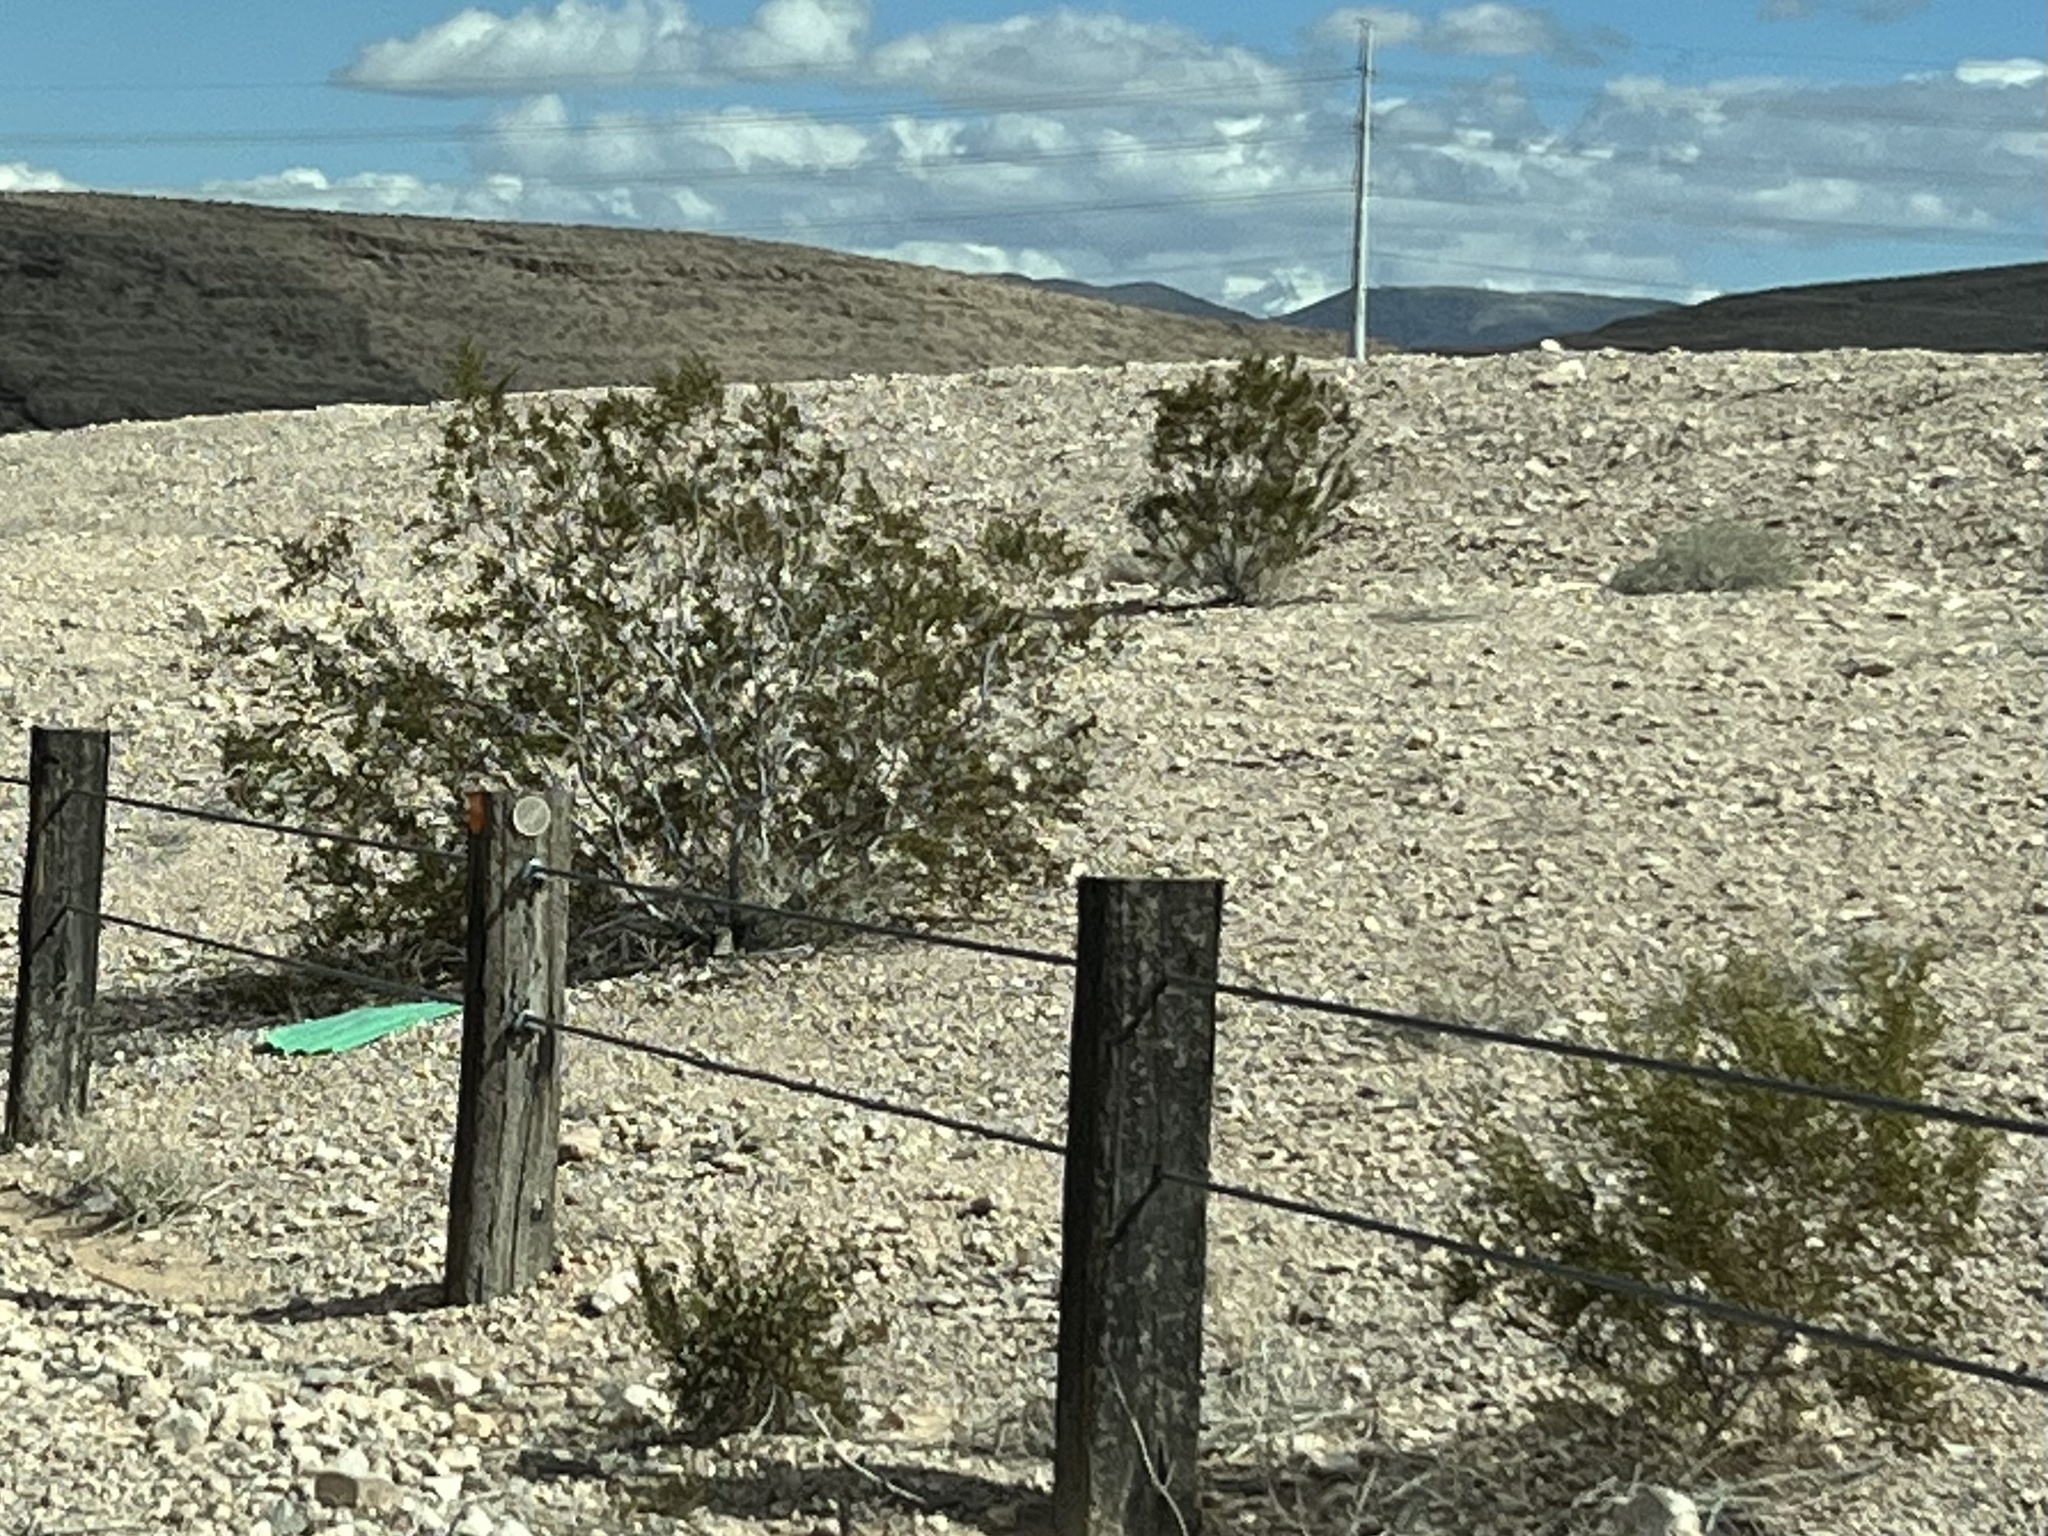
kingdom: Plantae
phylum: Tracheophyta
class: Magnoliopsida
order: Zygophyllales
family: Zygophyllaceae
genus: Larrea
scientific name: Larrea tridentata
